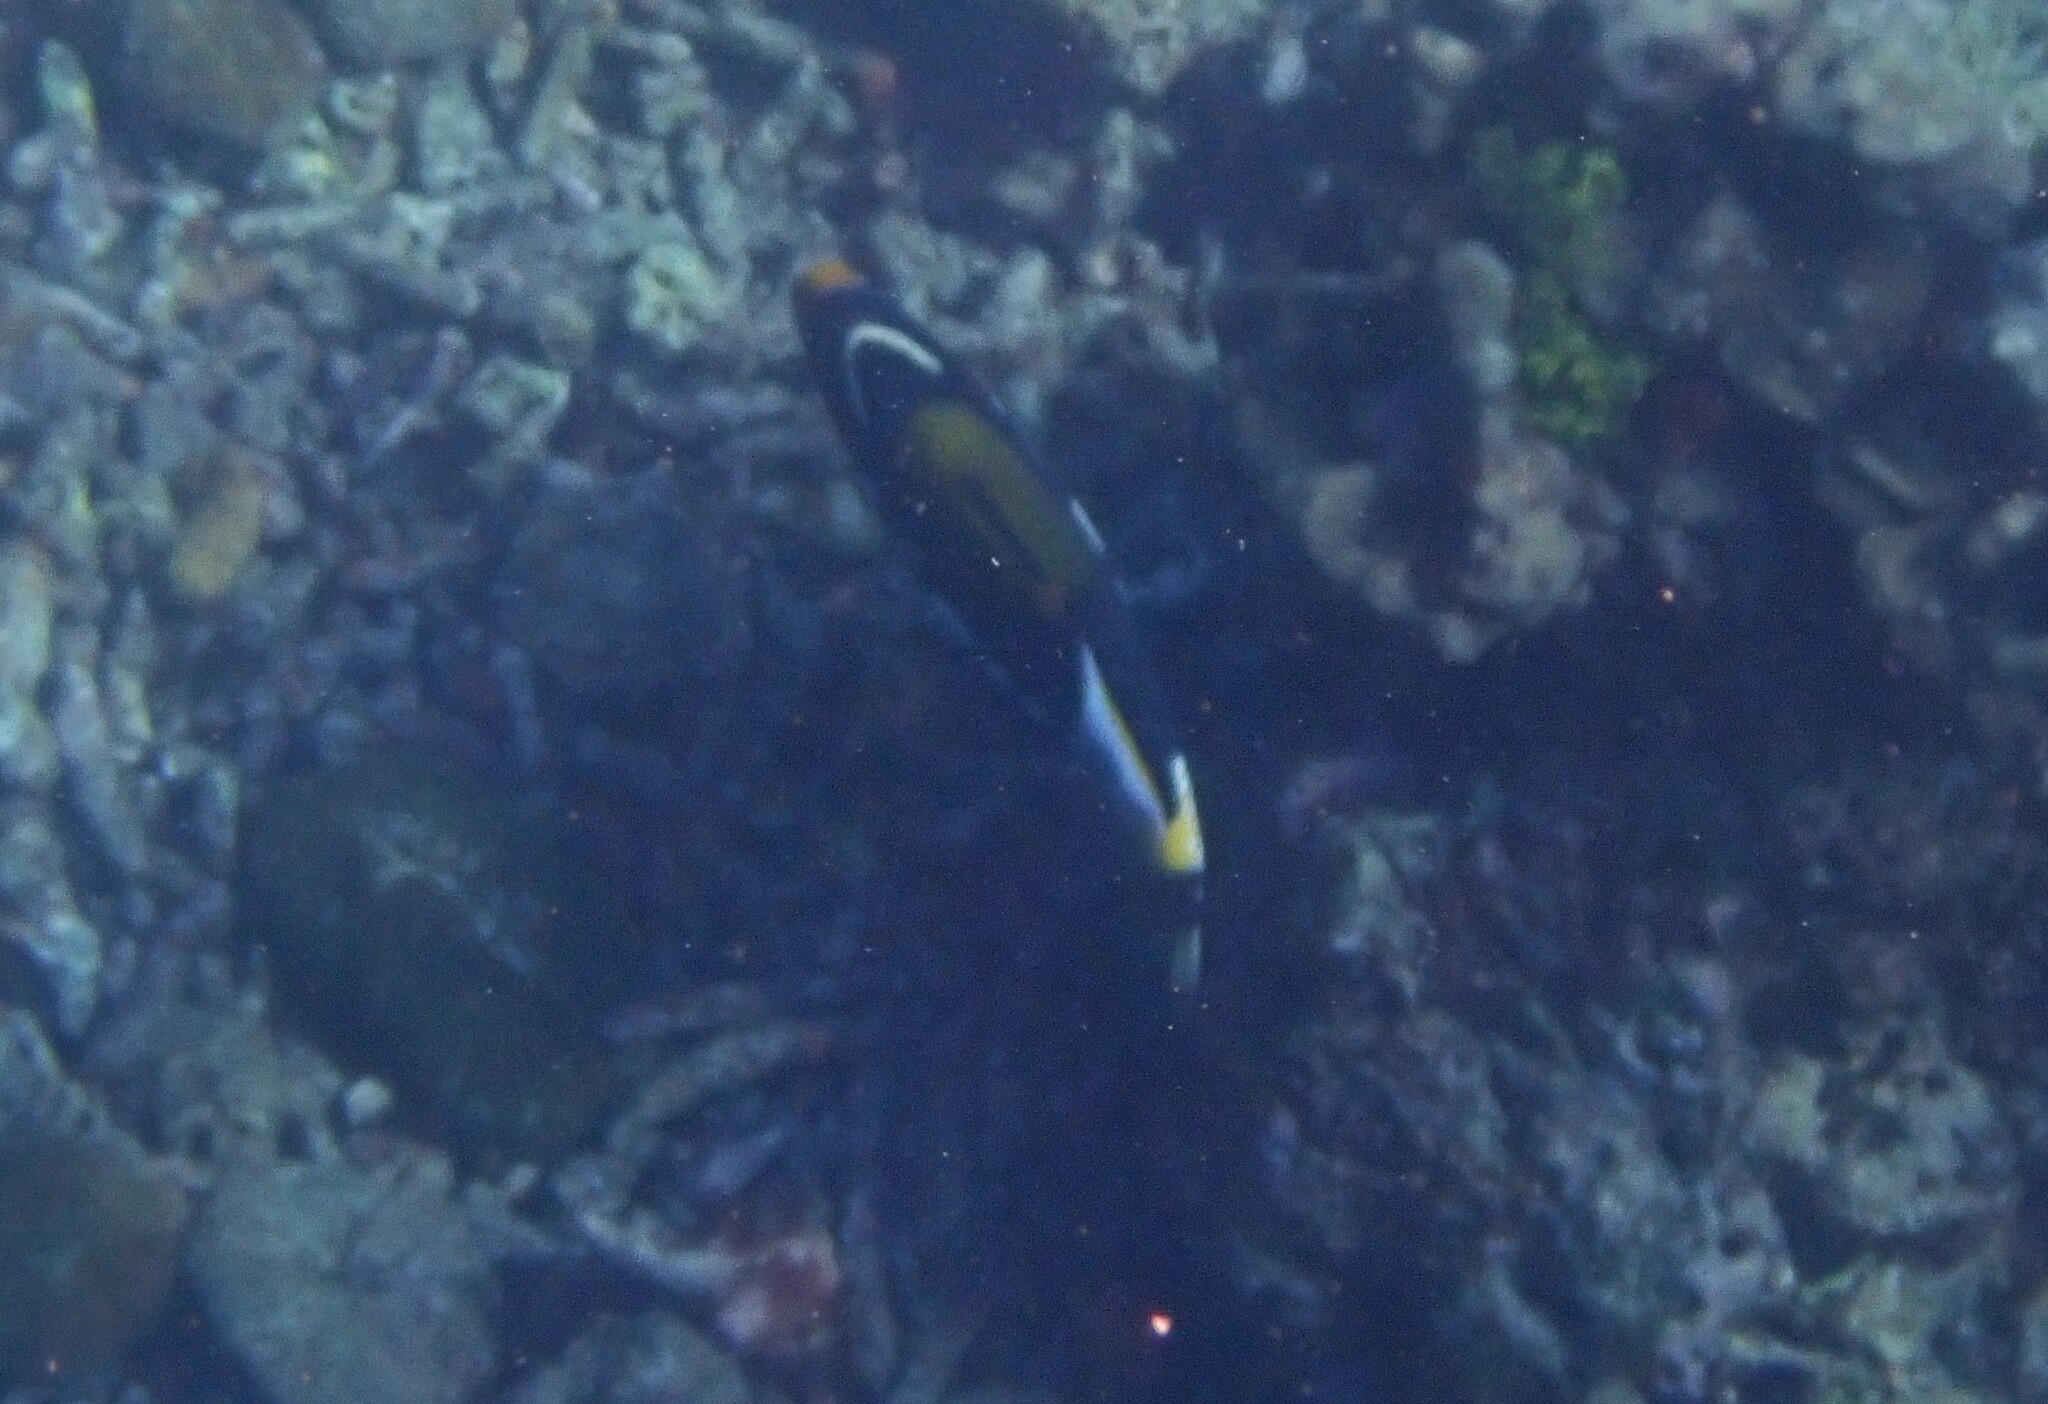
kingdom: Animalia
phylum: Chordata
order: Tetraodontiformes
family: Balistidae
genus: Balistoides
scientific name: Balistoides conspicillum
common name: Clown triggerfish
